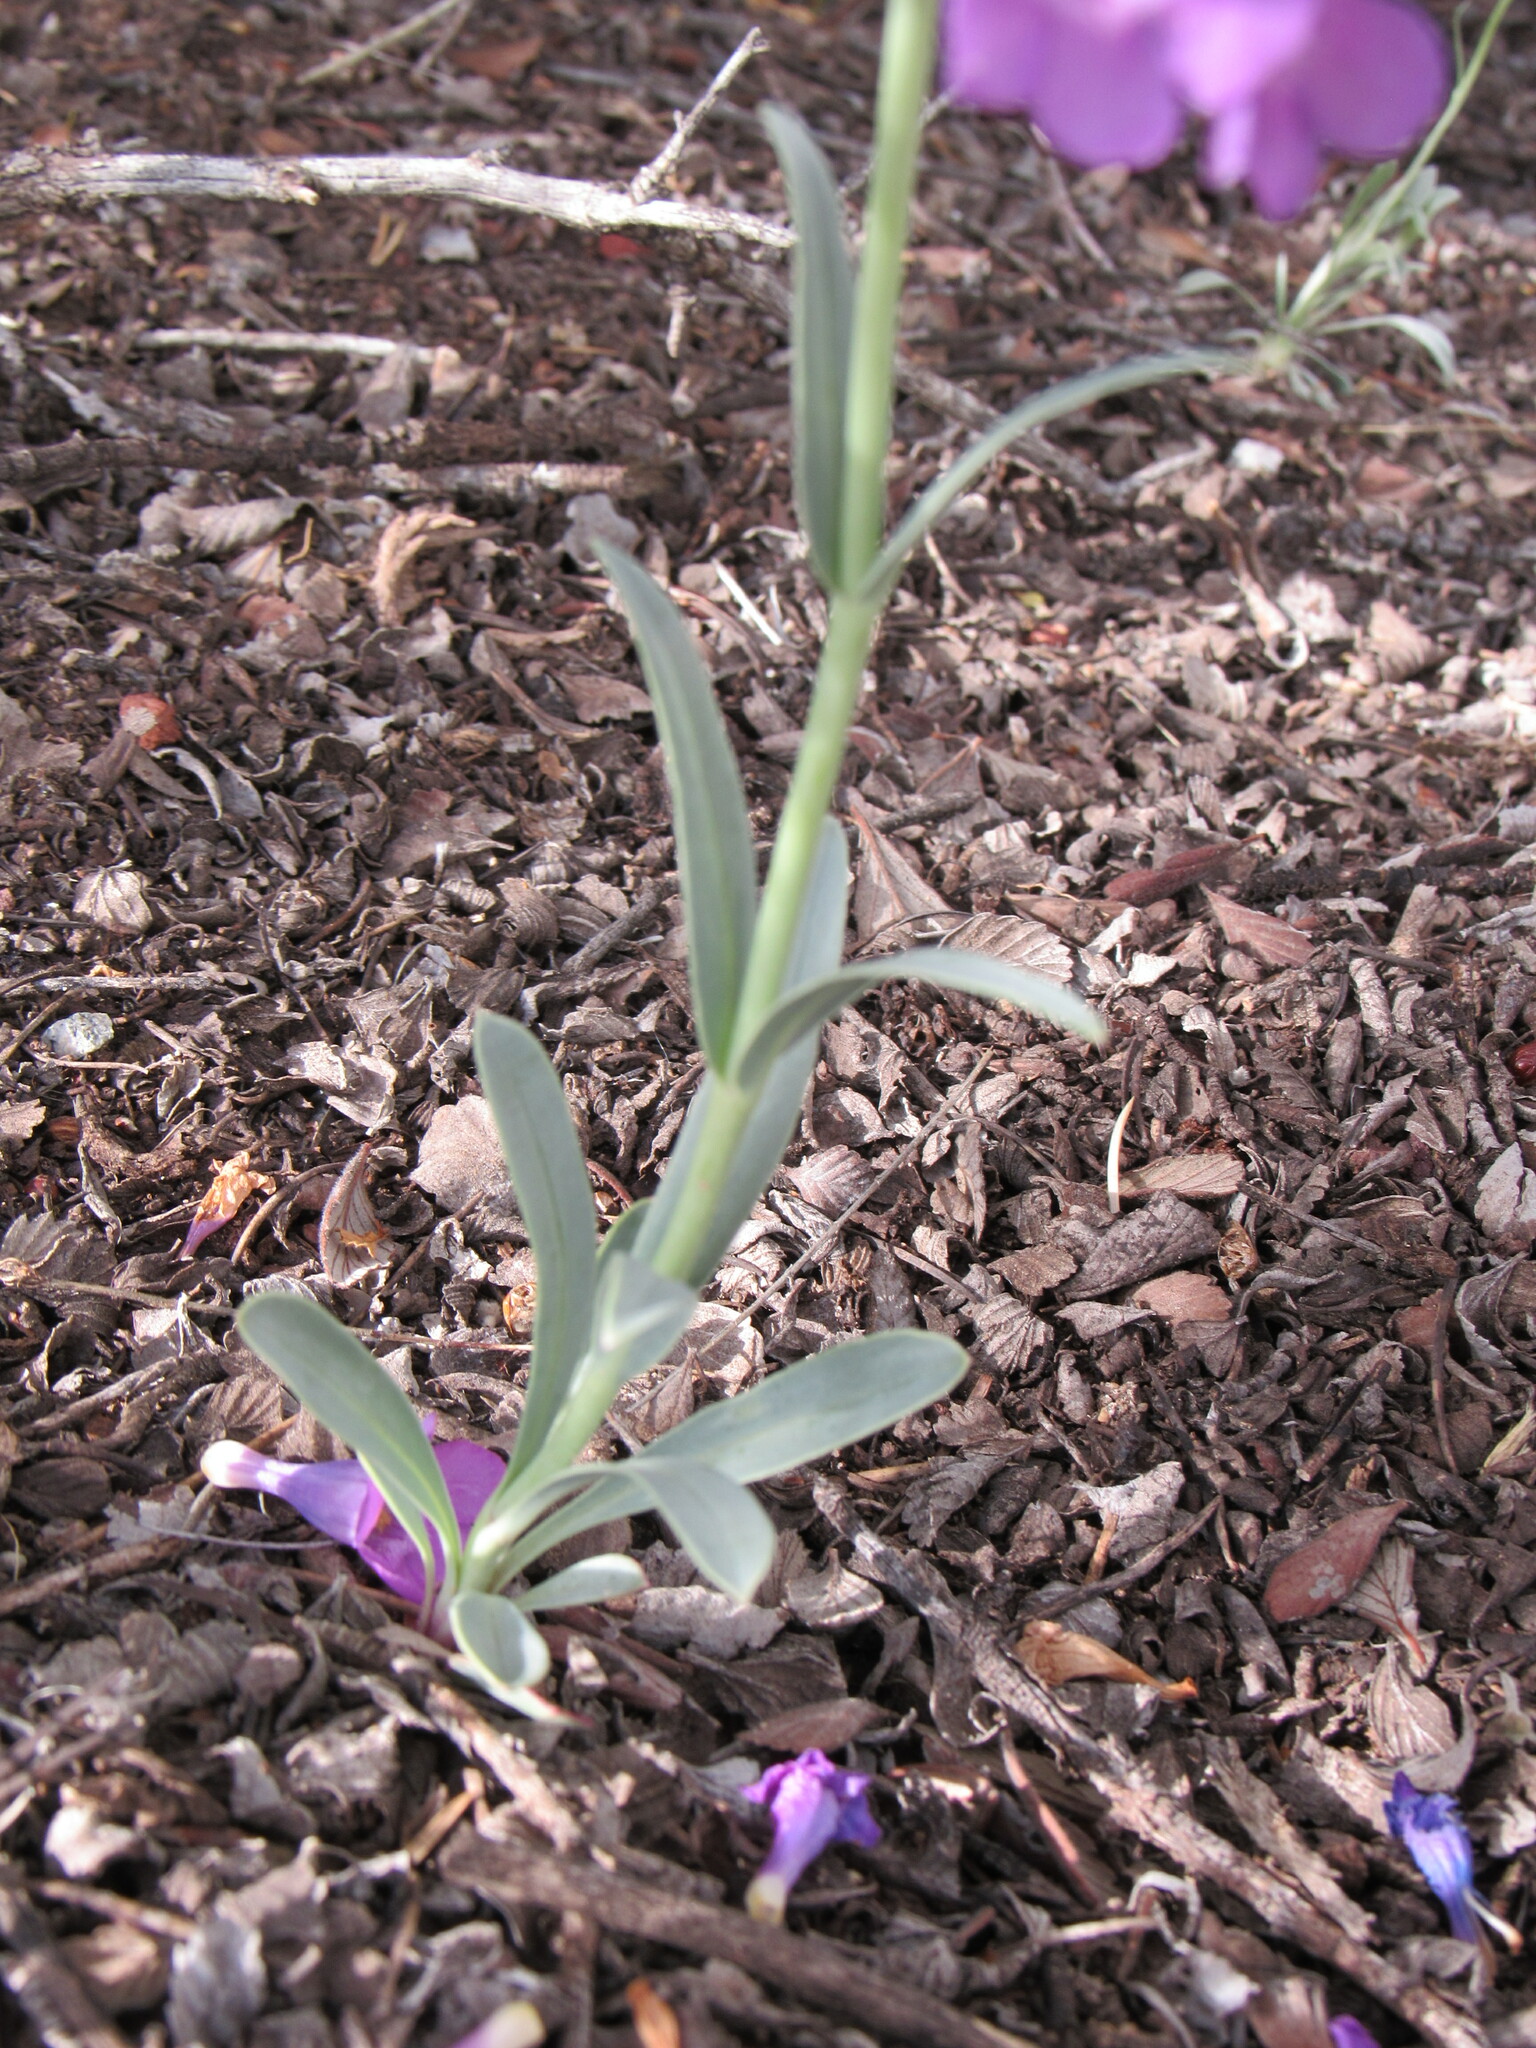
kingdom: Plantae
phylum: Tracheophyta
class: Magnoliopsida
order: Lamiales
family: Plantaginaceae
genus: Penstemon
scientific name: Penstemon secundiflorus
